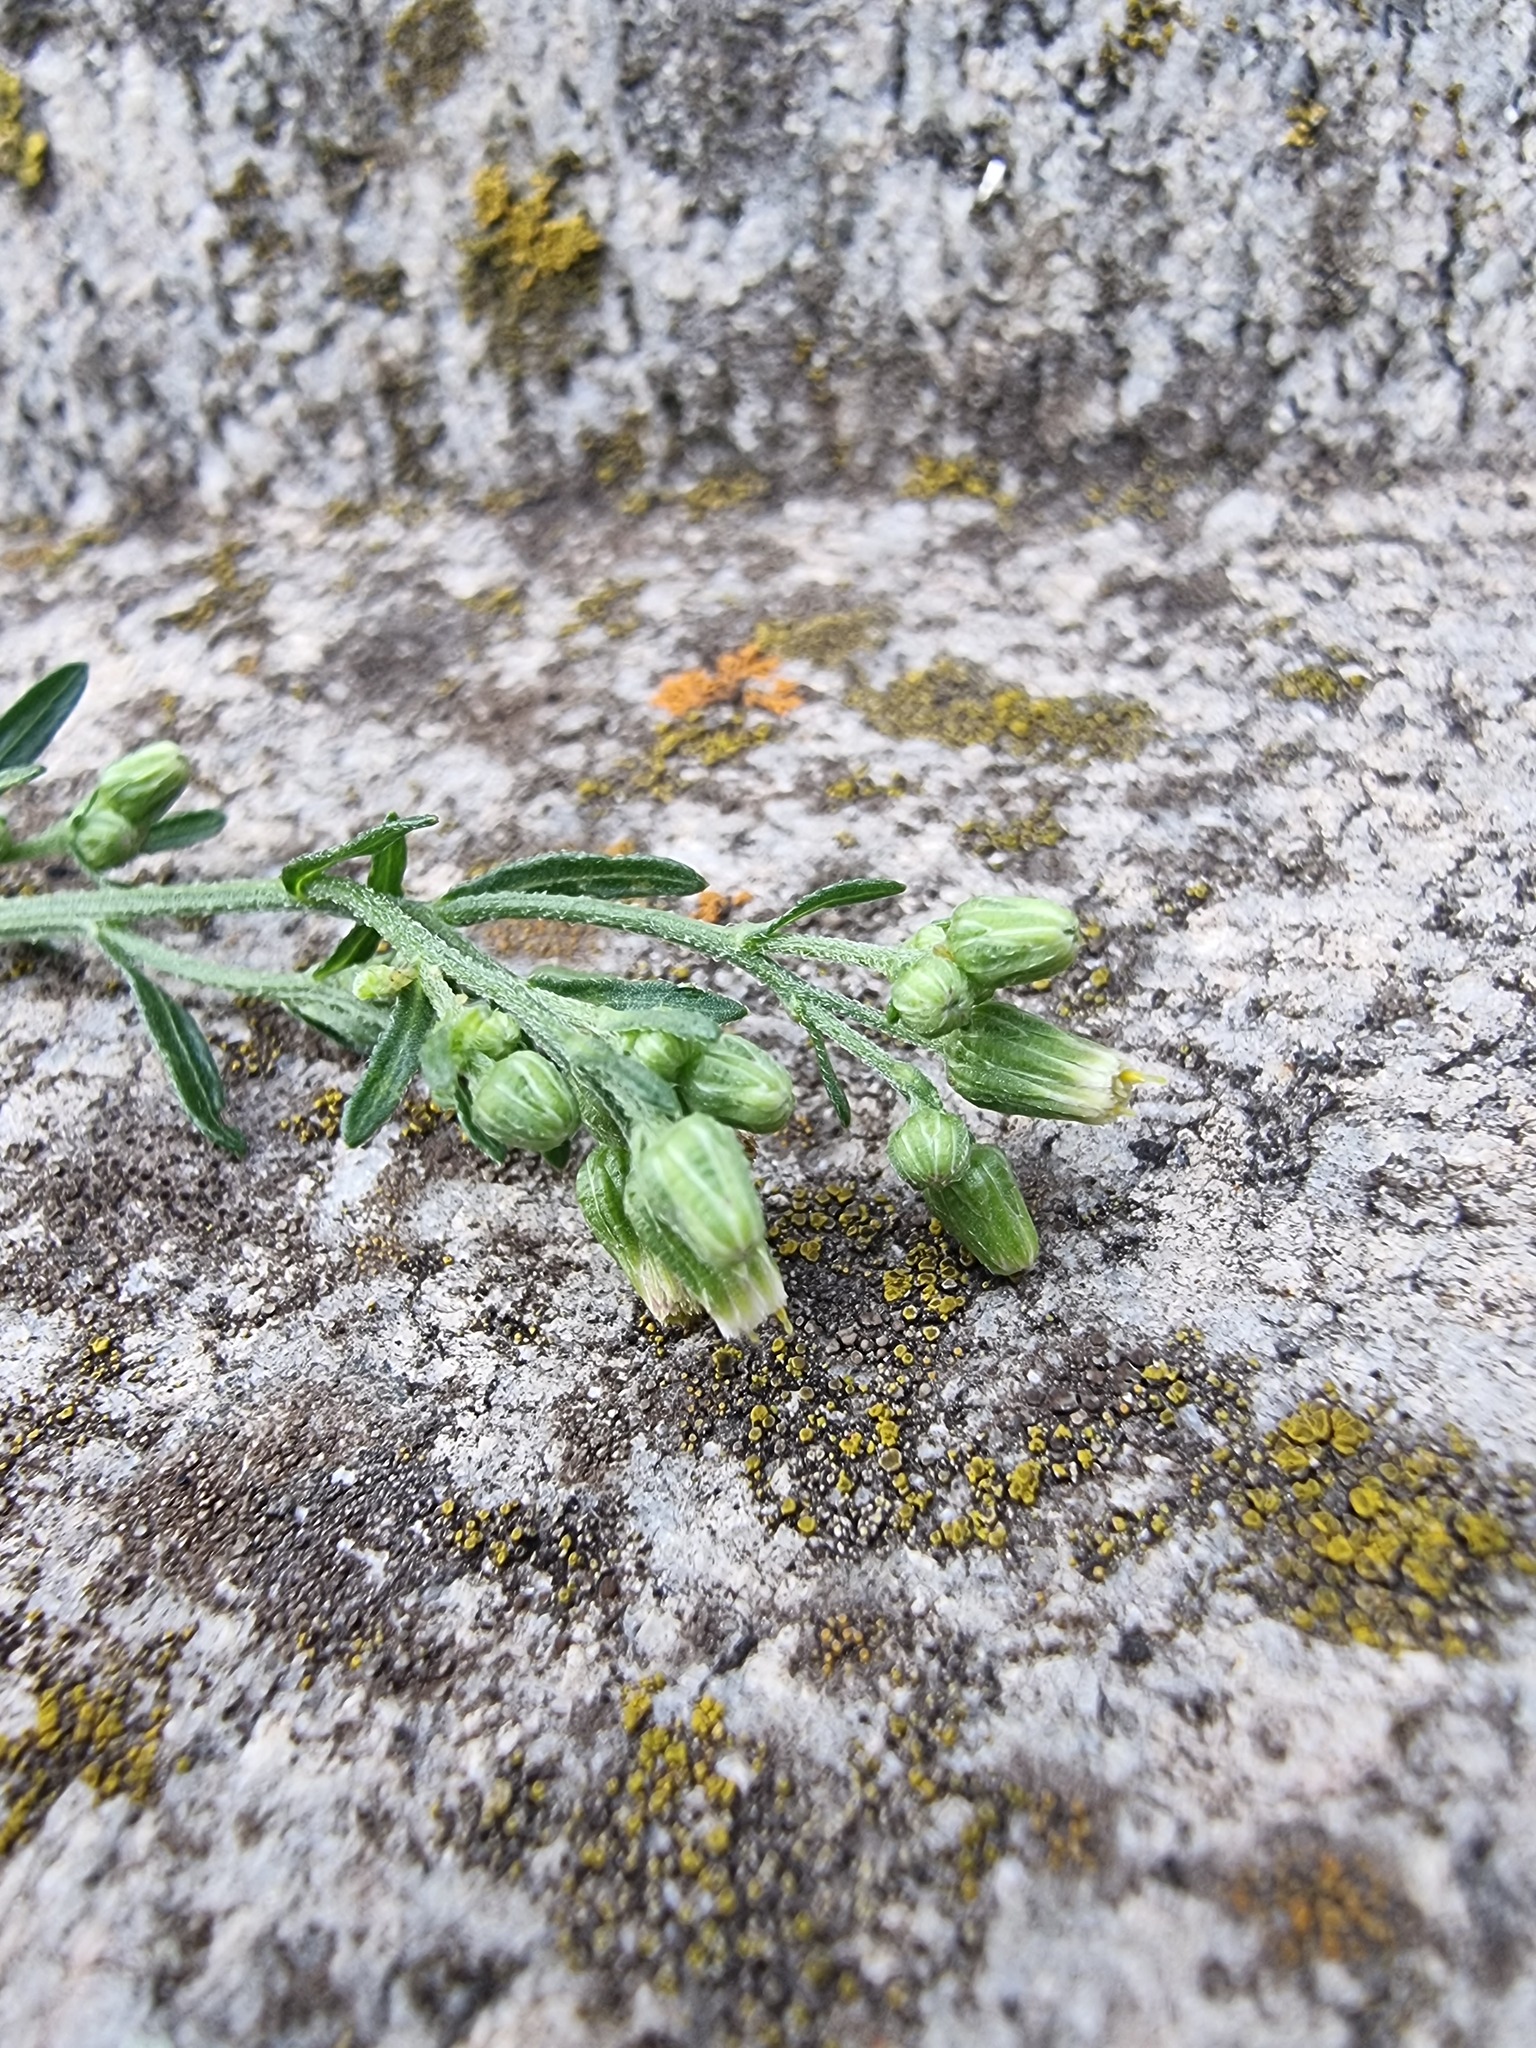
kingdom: Plantae
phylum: Tracheophyta
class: Magnoliopsida
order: Asterales
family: Asteraceae
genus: Erigeron
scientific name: Erigeron floribundus
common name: Bilbao fleabane
